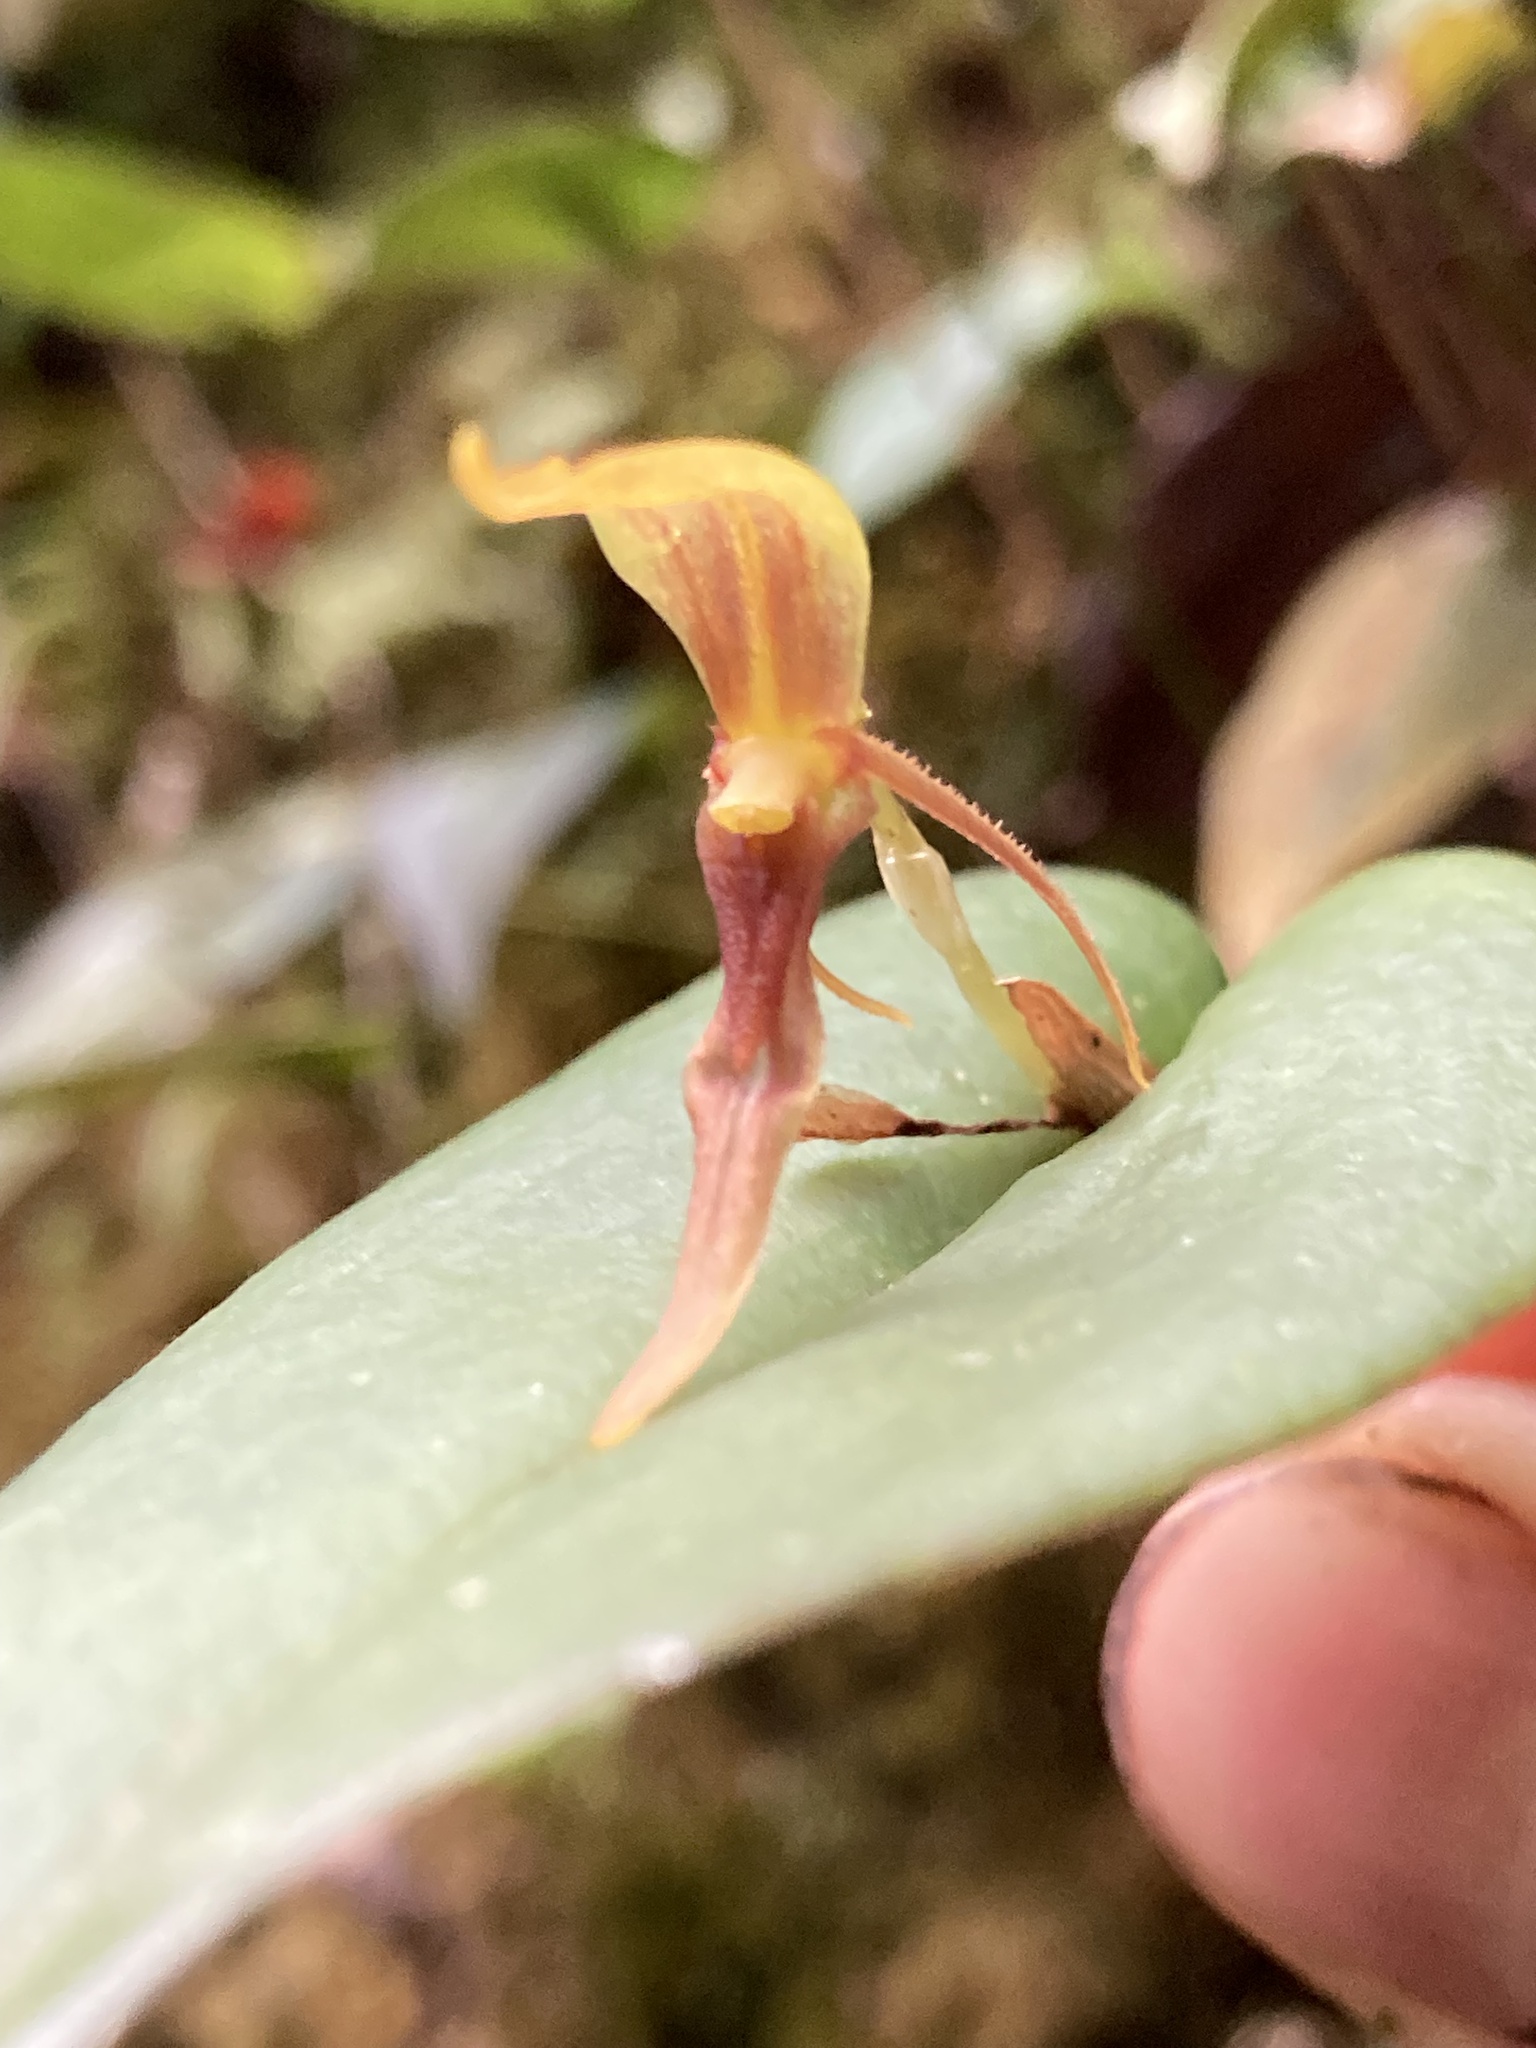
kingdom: Plantae
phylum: Tracheophyta
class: Liliopsida
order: Asparagales
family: Orchidaceae
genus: Pleurothallis
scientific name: Pleurothallis killipii
